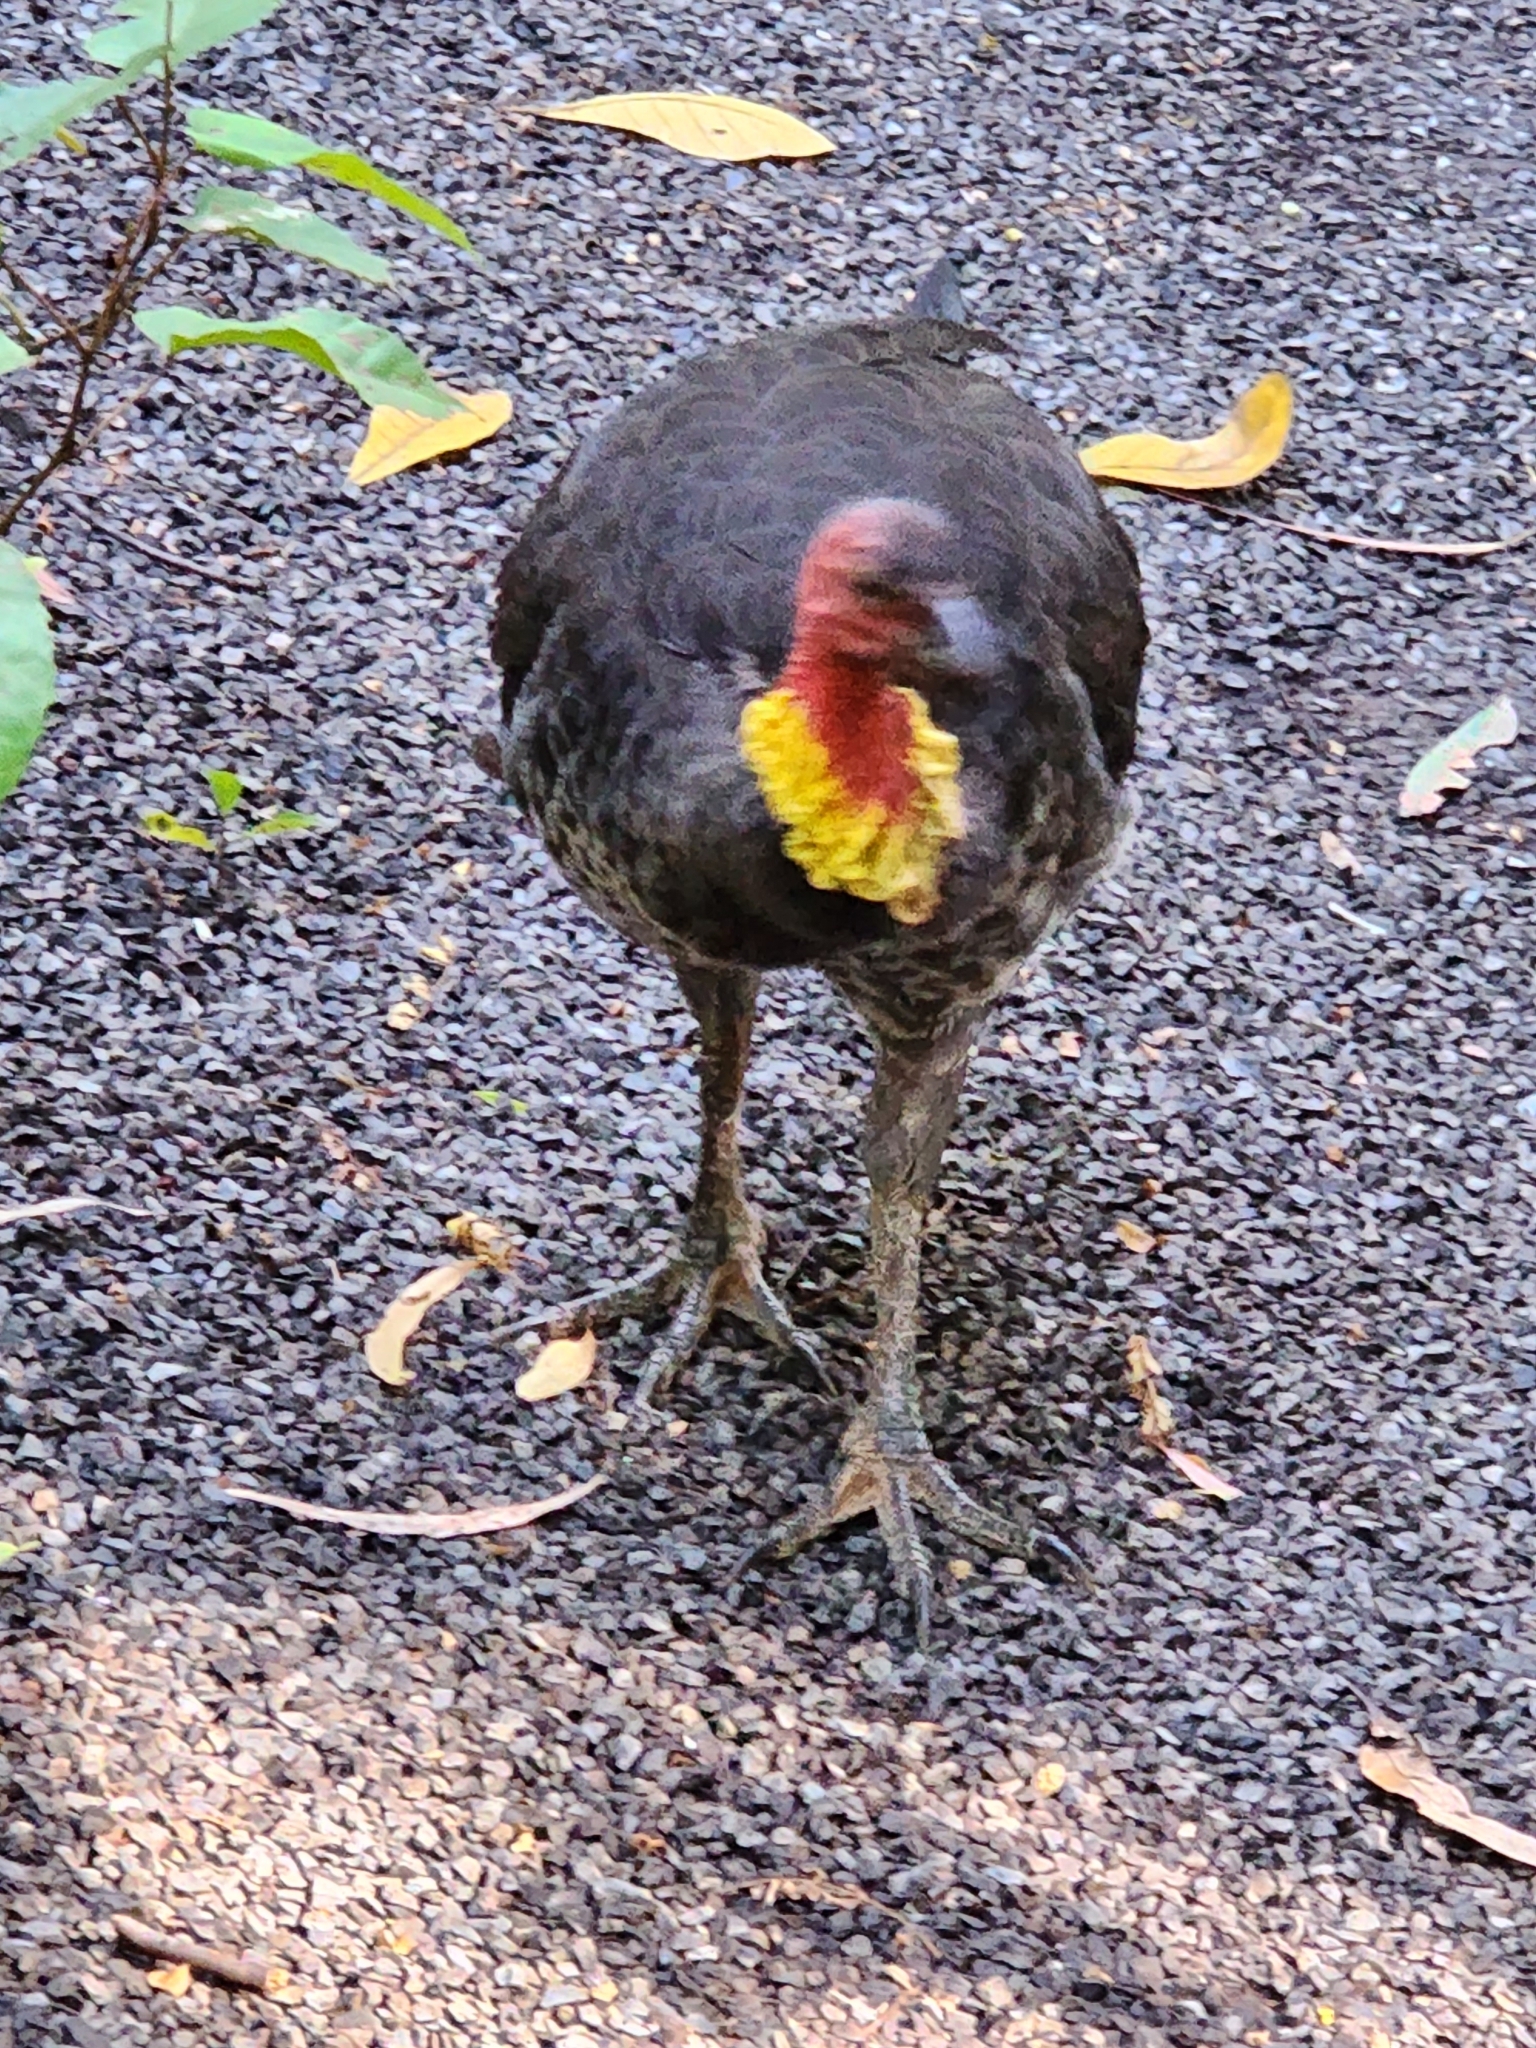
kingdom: Animalia
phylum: Chordata
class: Aves
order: Galliformes
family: Megapodiidae
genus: Alectura
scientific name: Alectura lathami
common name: Australian brushturkey
